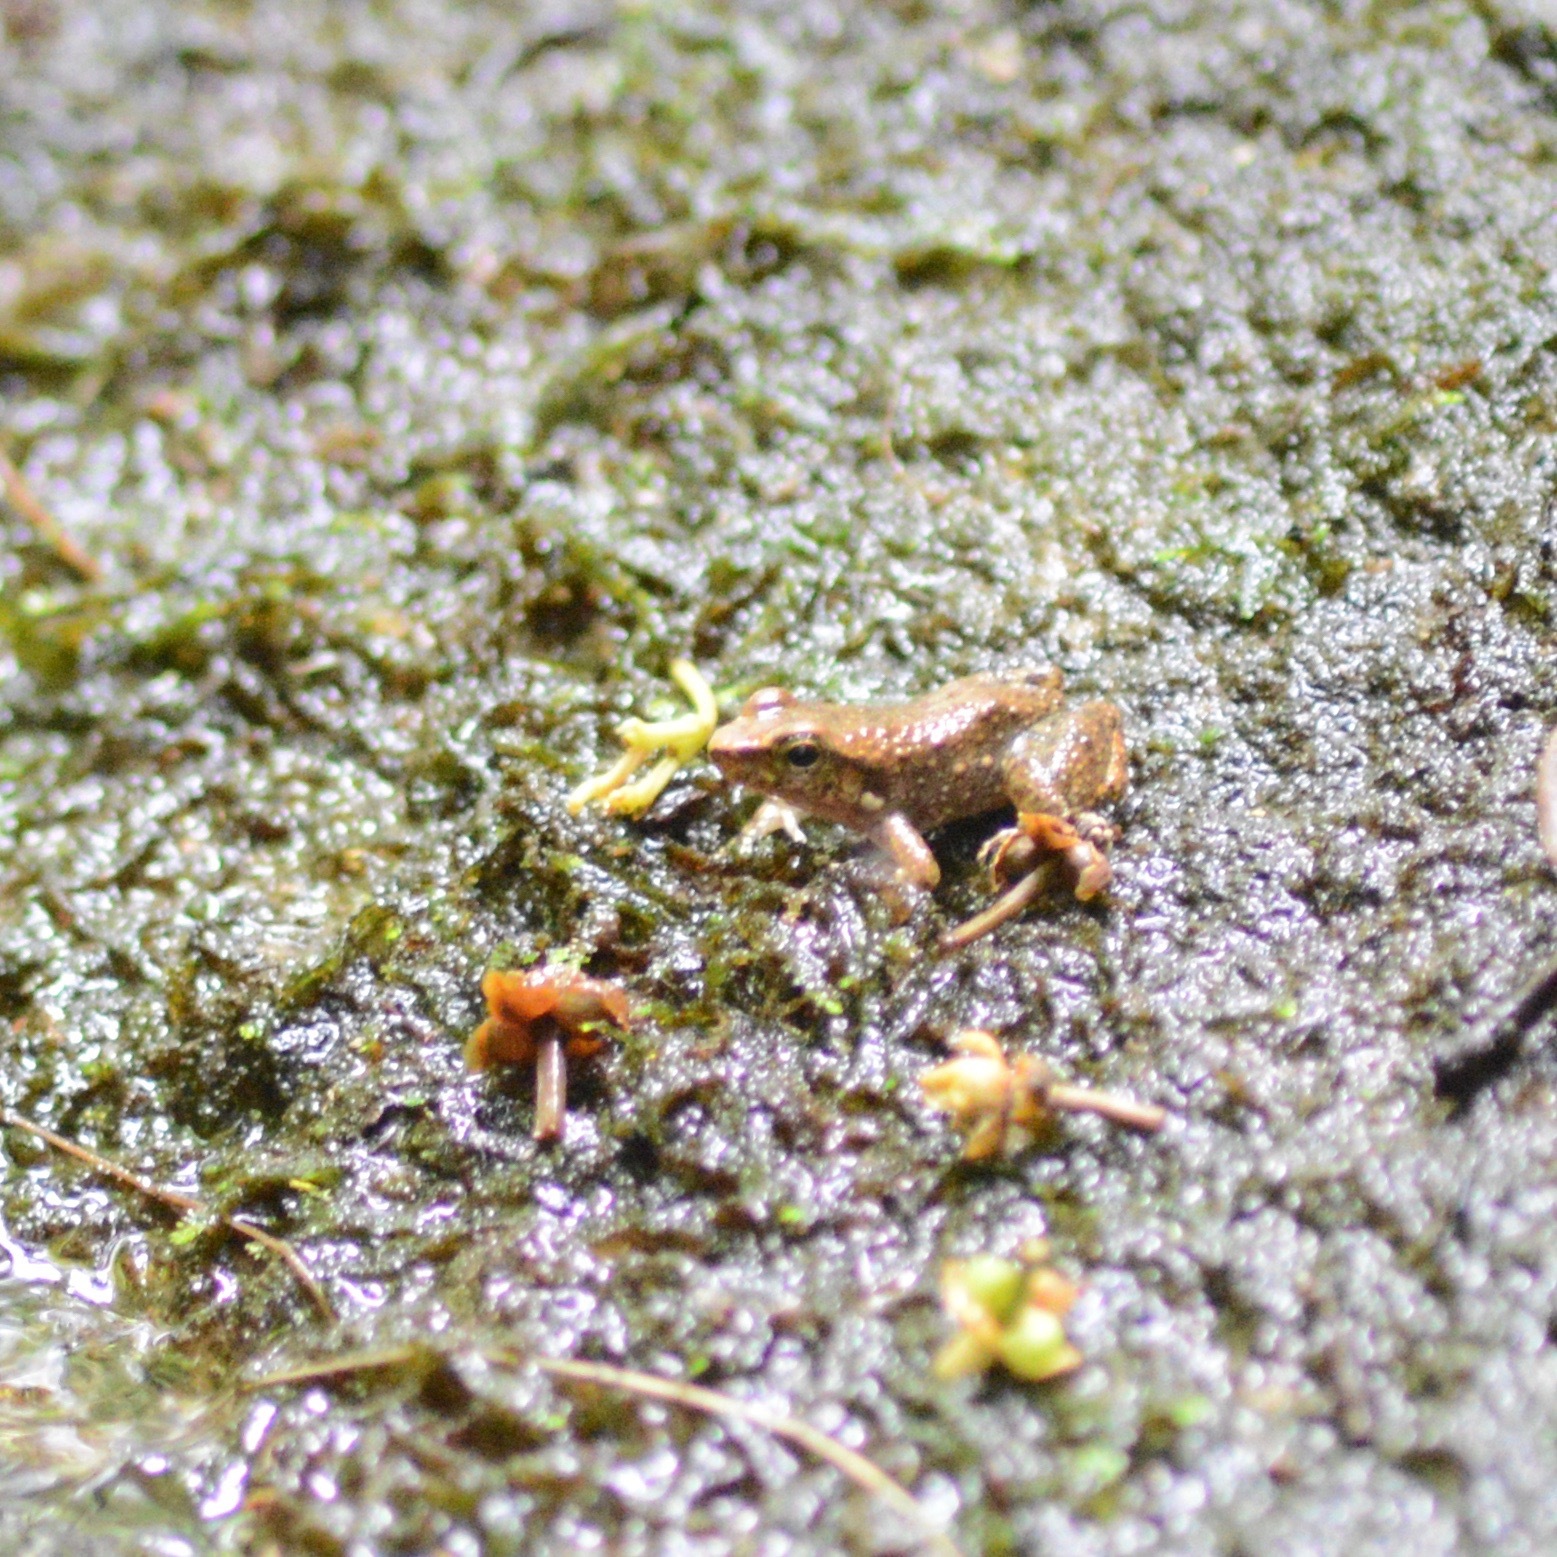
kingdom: Animalia
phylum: Chordata
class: Amphibia
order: Anura
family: Hylodidae
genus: Crossodactylus
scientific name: Crossodactylus dantei
